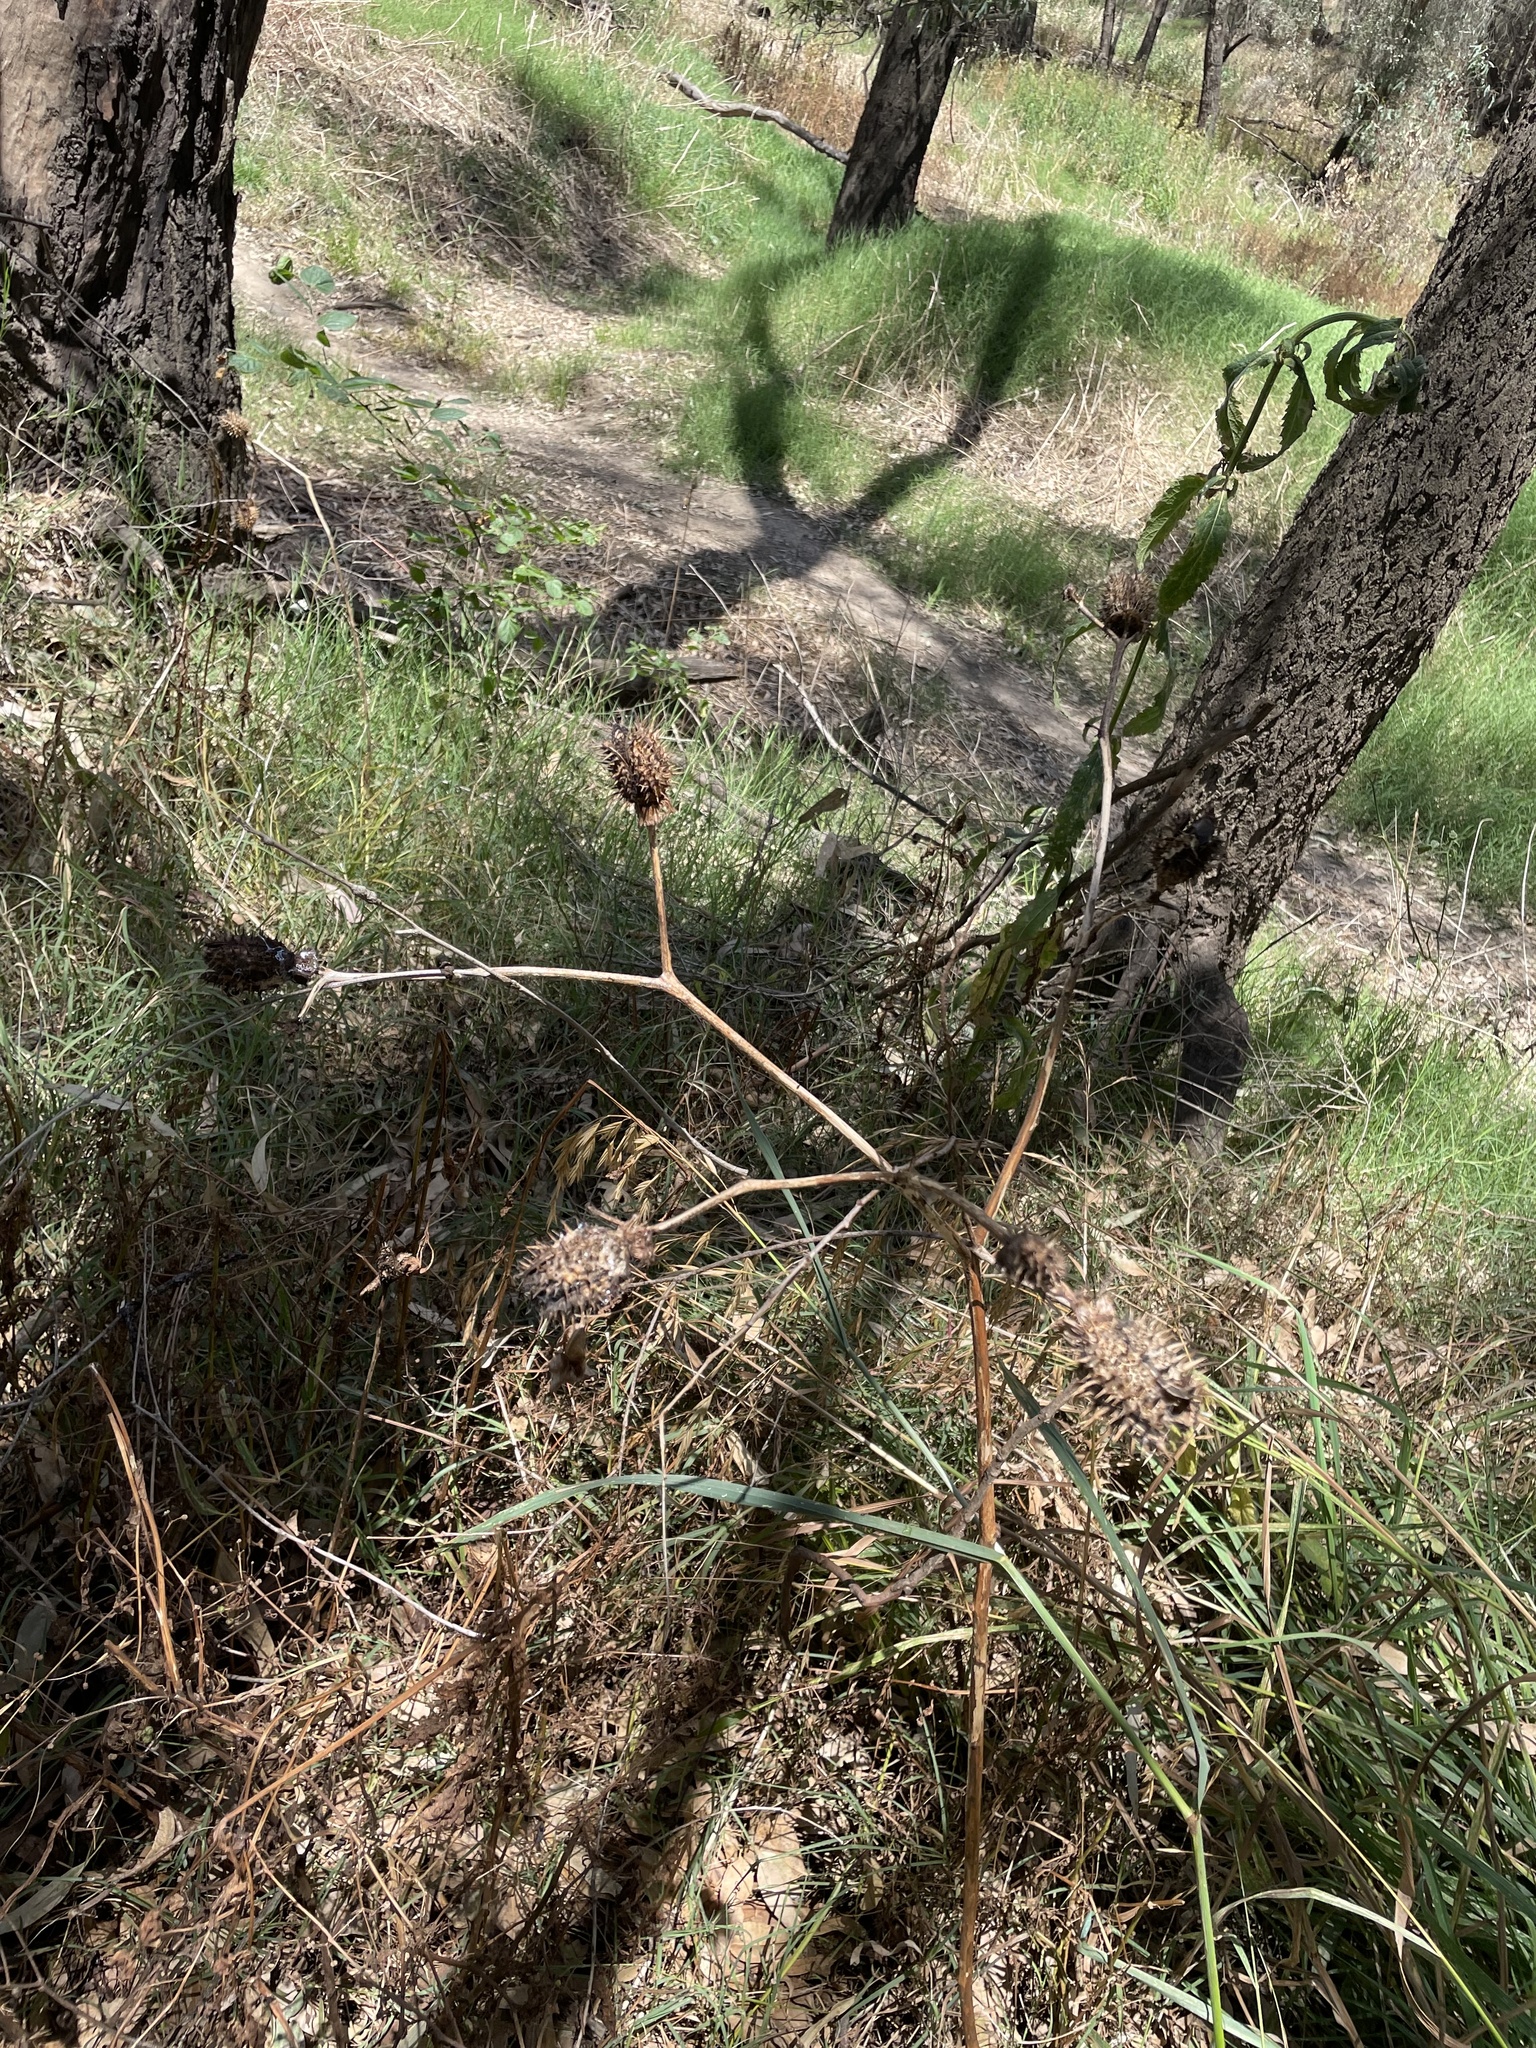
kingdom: Plantae
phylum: Tracheophyta
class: Magnoliopsida
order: Solanales
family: Solanaceae
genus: Datura
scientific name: Datura stramonium
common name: Thorn-apple
